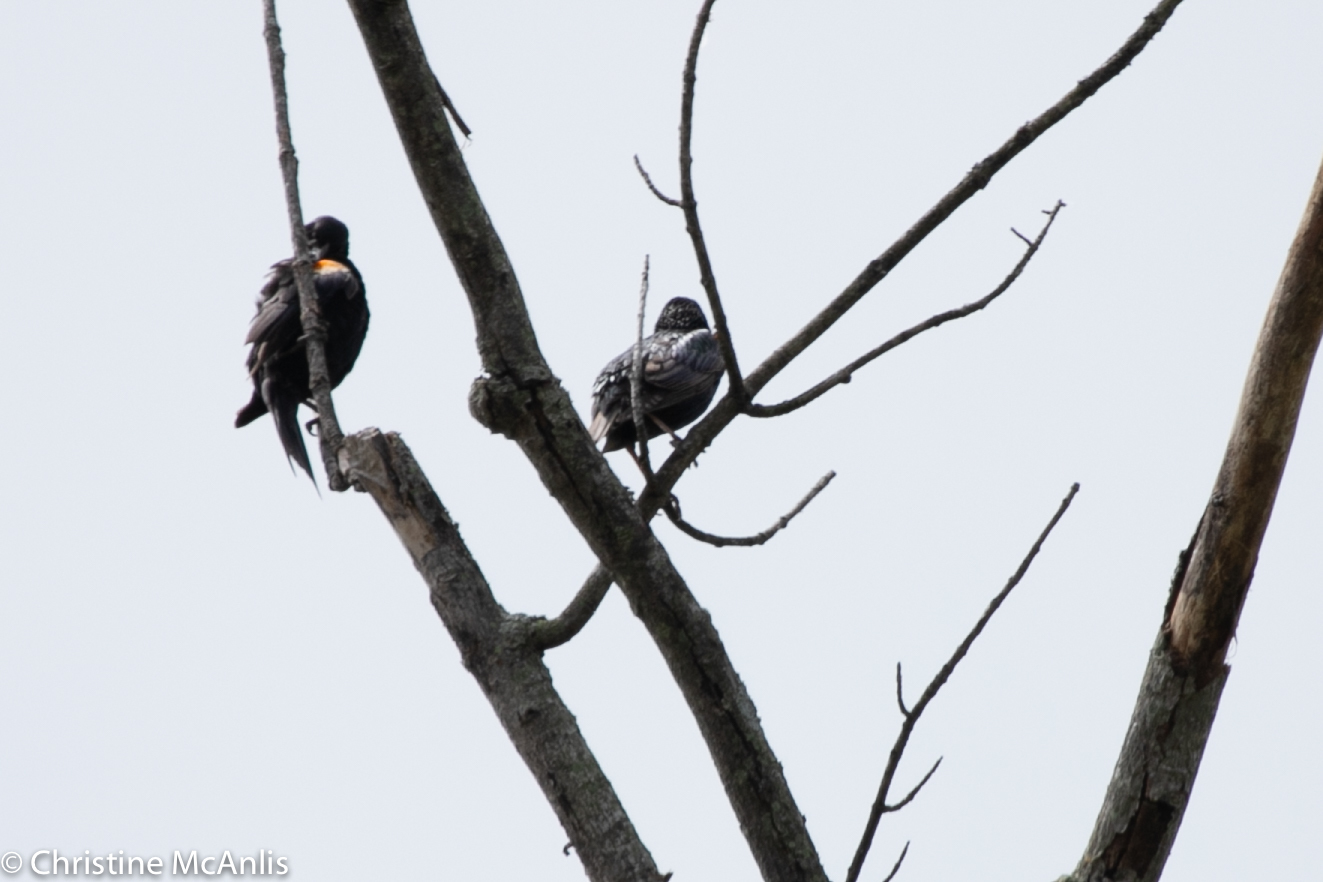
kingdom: Animalia
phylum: Chordata
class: Aves
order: Passeriformes
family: Icteridae
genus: Agelaius
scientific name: Agelaius phoeniceus
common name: Red-winged blackbird
